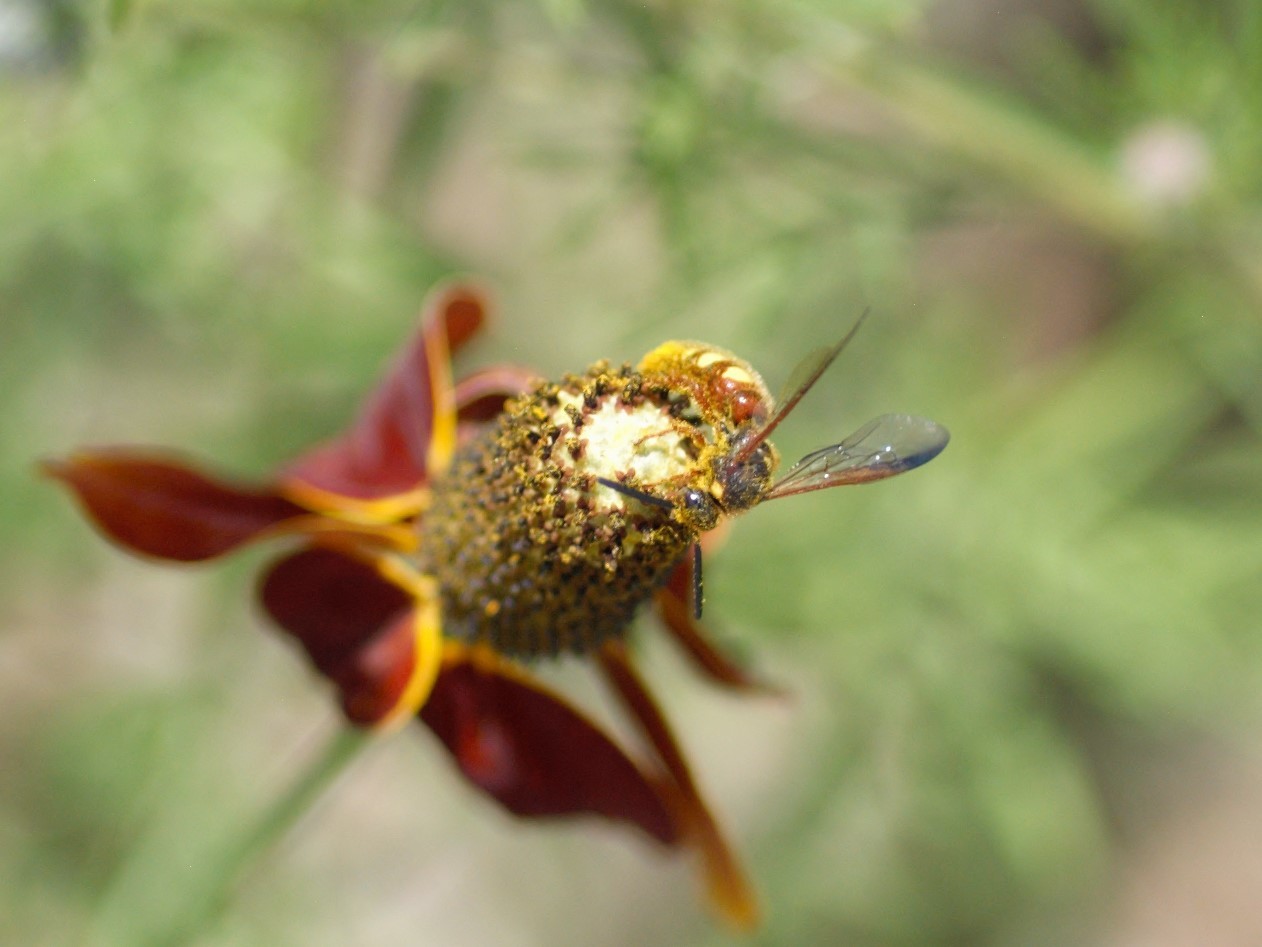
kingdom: Animalia
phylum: Arthropoda
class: Insecta
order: Hymenoptera
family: Scoliidae
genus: Scolia
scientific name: Scolia nobilitata
